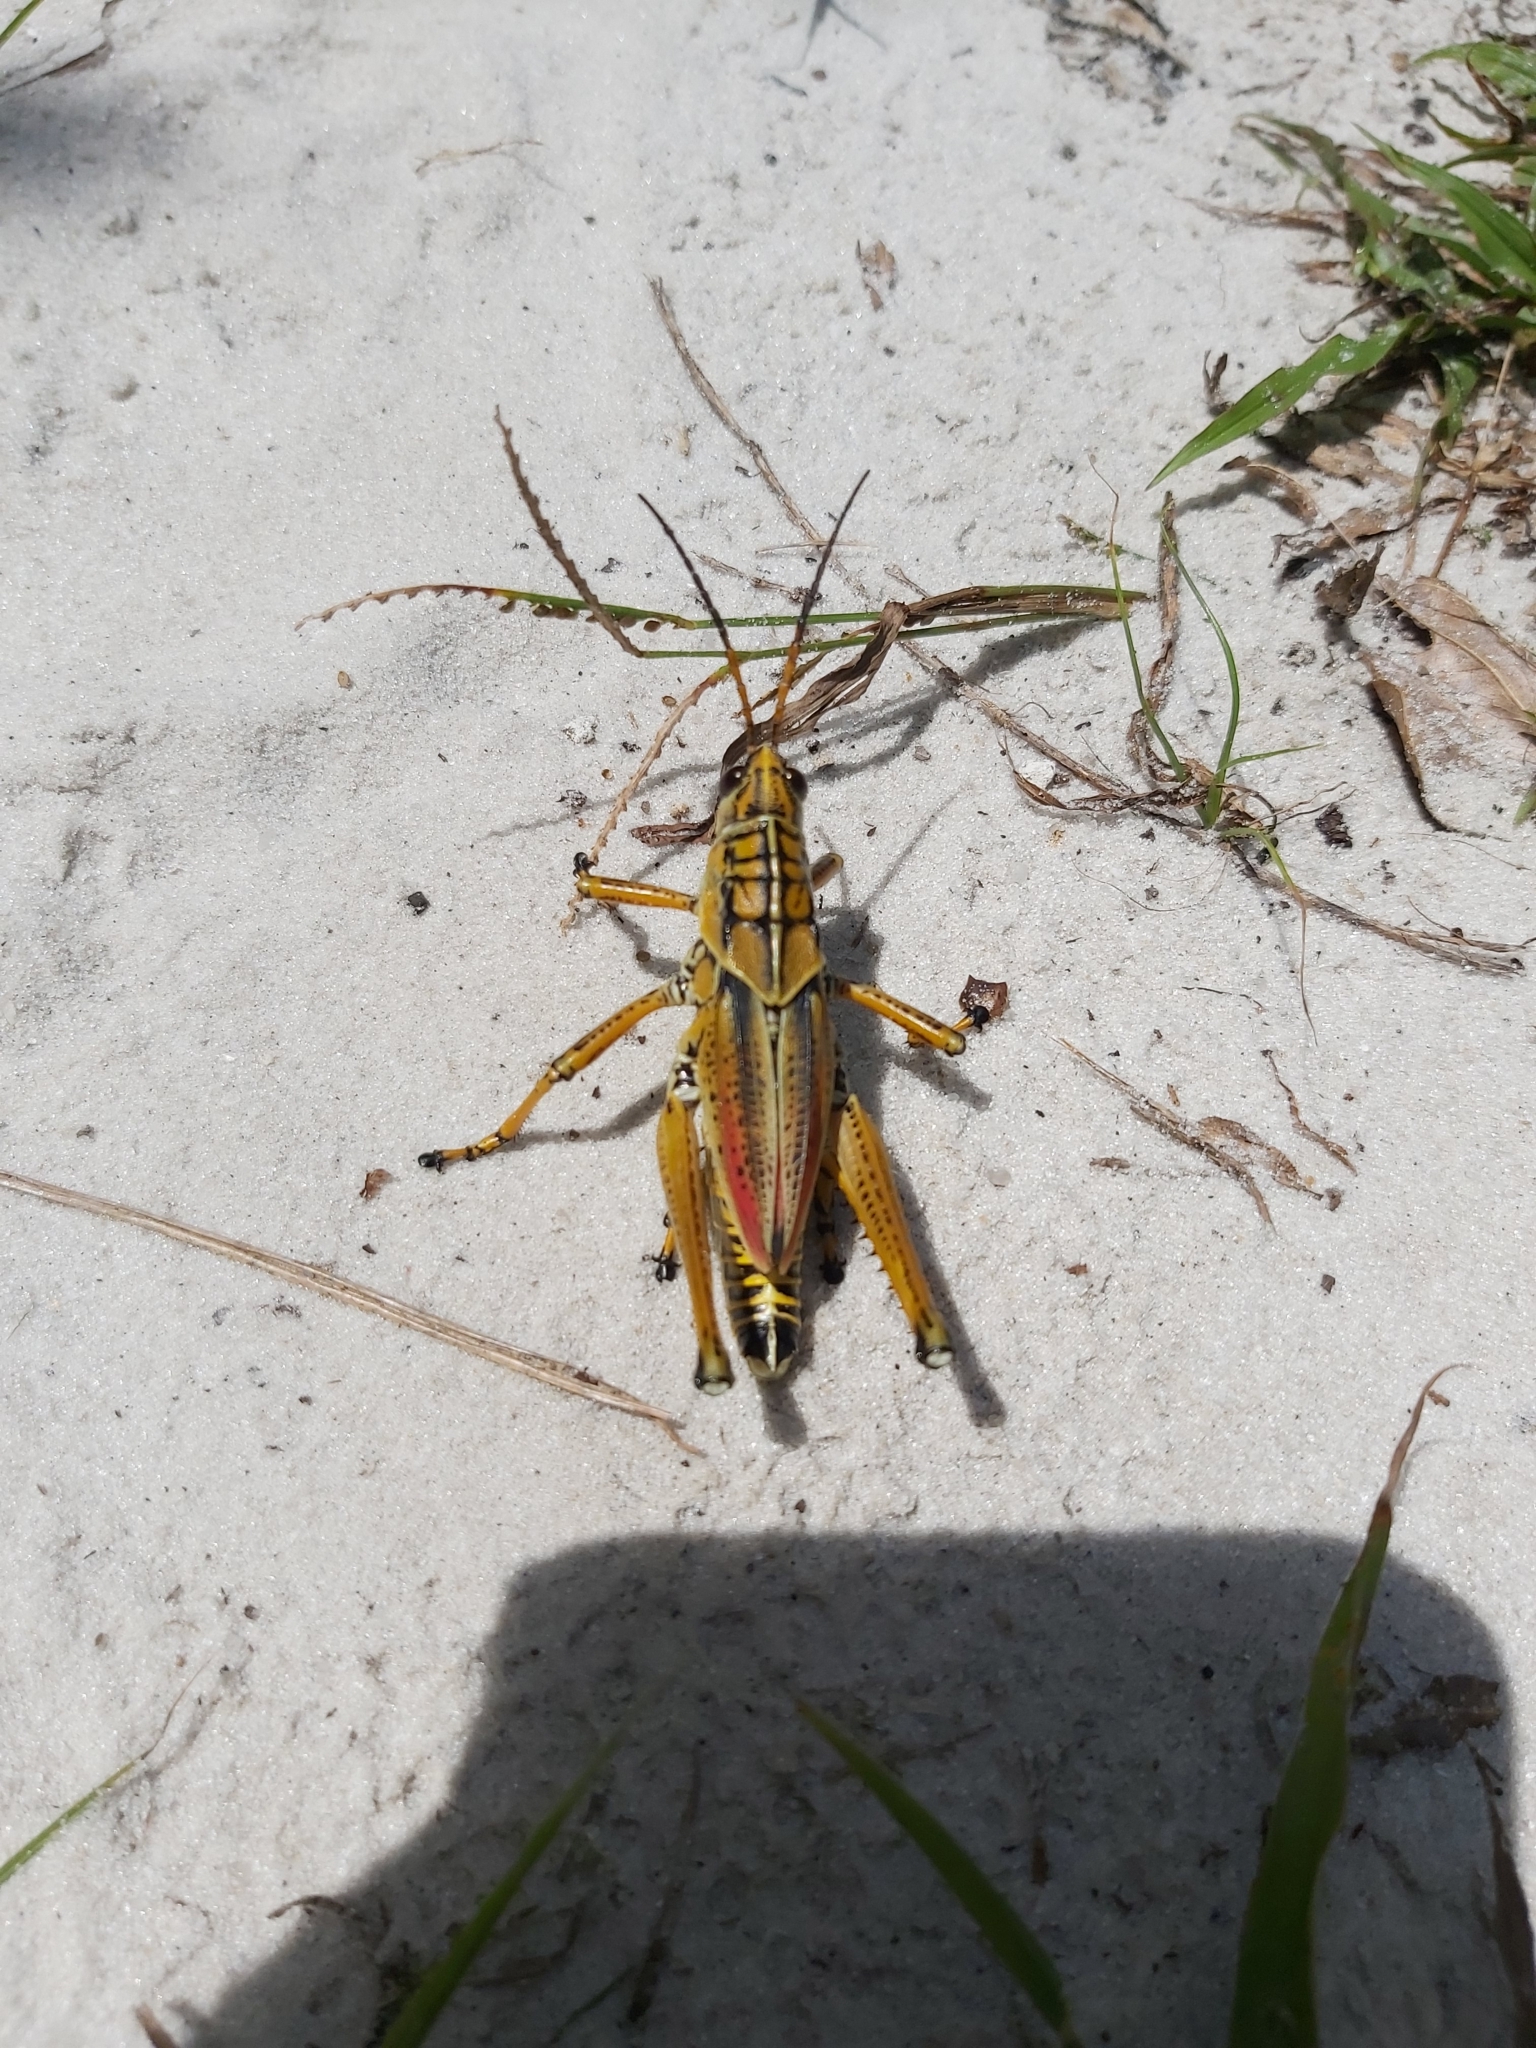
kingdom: Animalia
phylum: Arthropoda
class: Insecta
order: Orthoptera
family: Romaleidae
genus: Romalea
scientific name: Romalea microptera
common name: Eastern lubber grasshopper
